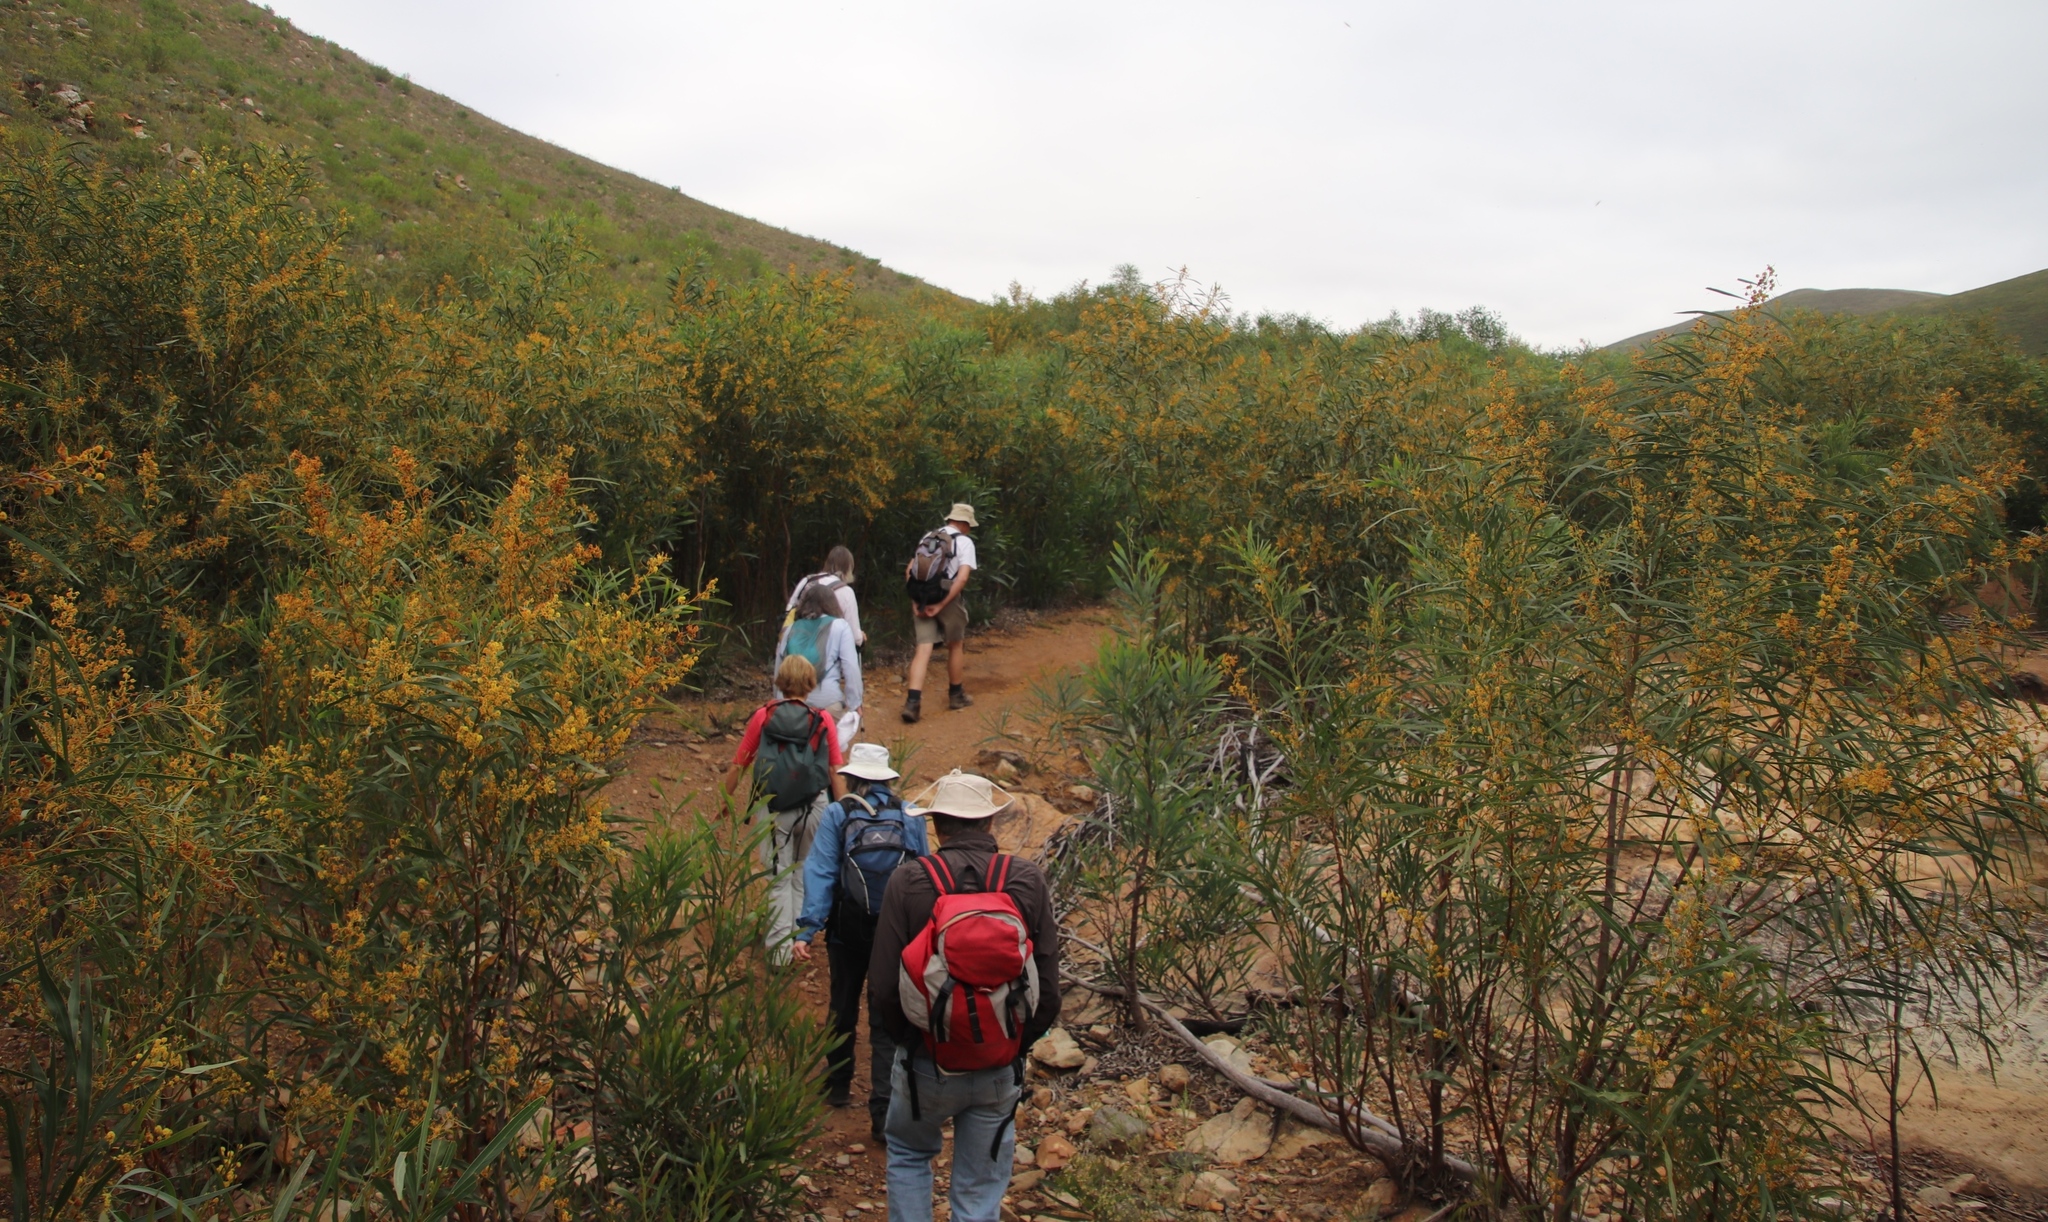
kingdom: Plantae
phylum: Tracheophyta
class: Magnoliopsida
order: Fabales
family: Fabaceae
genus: Acacia
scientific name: Acacia saligna
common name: Orange wattle
